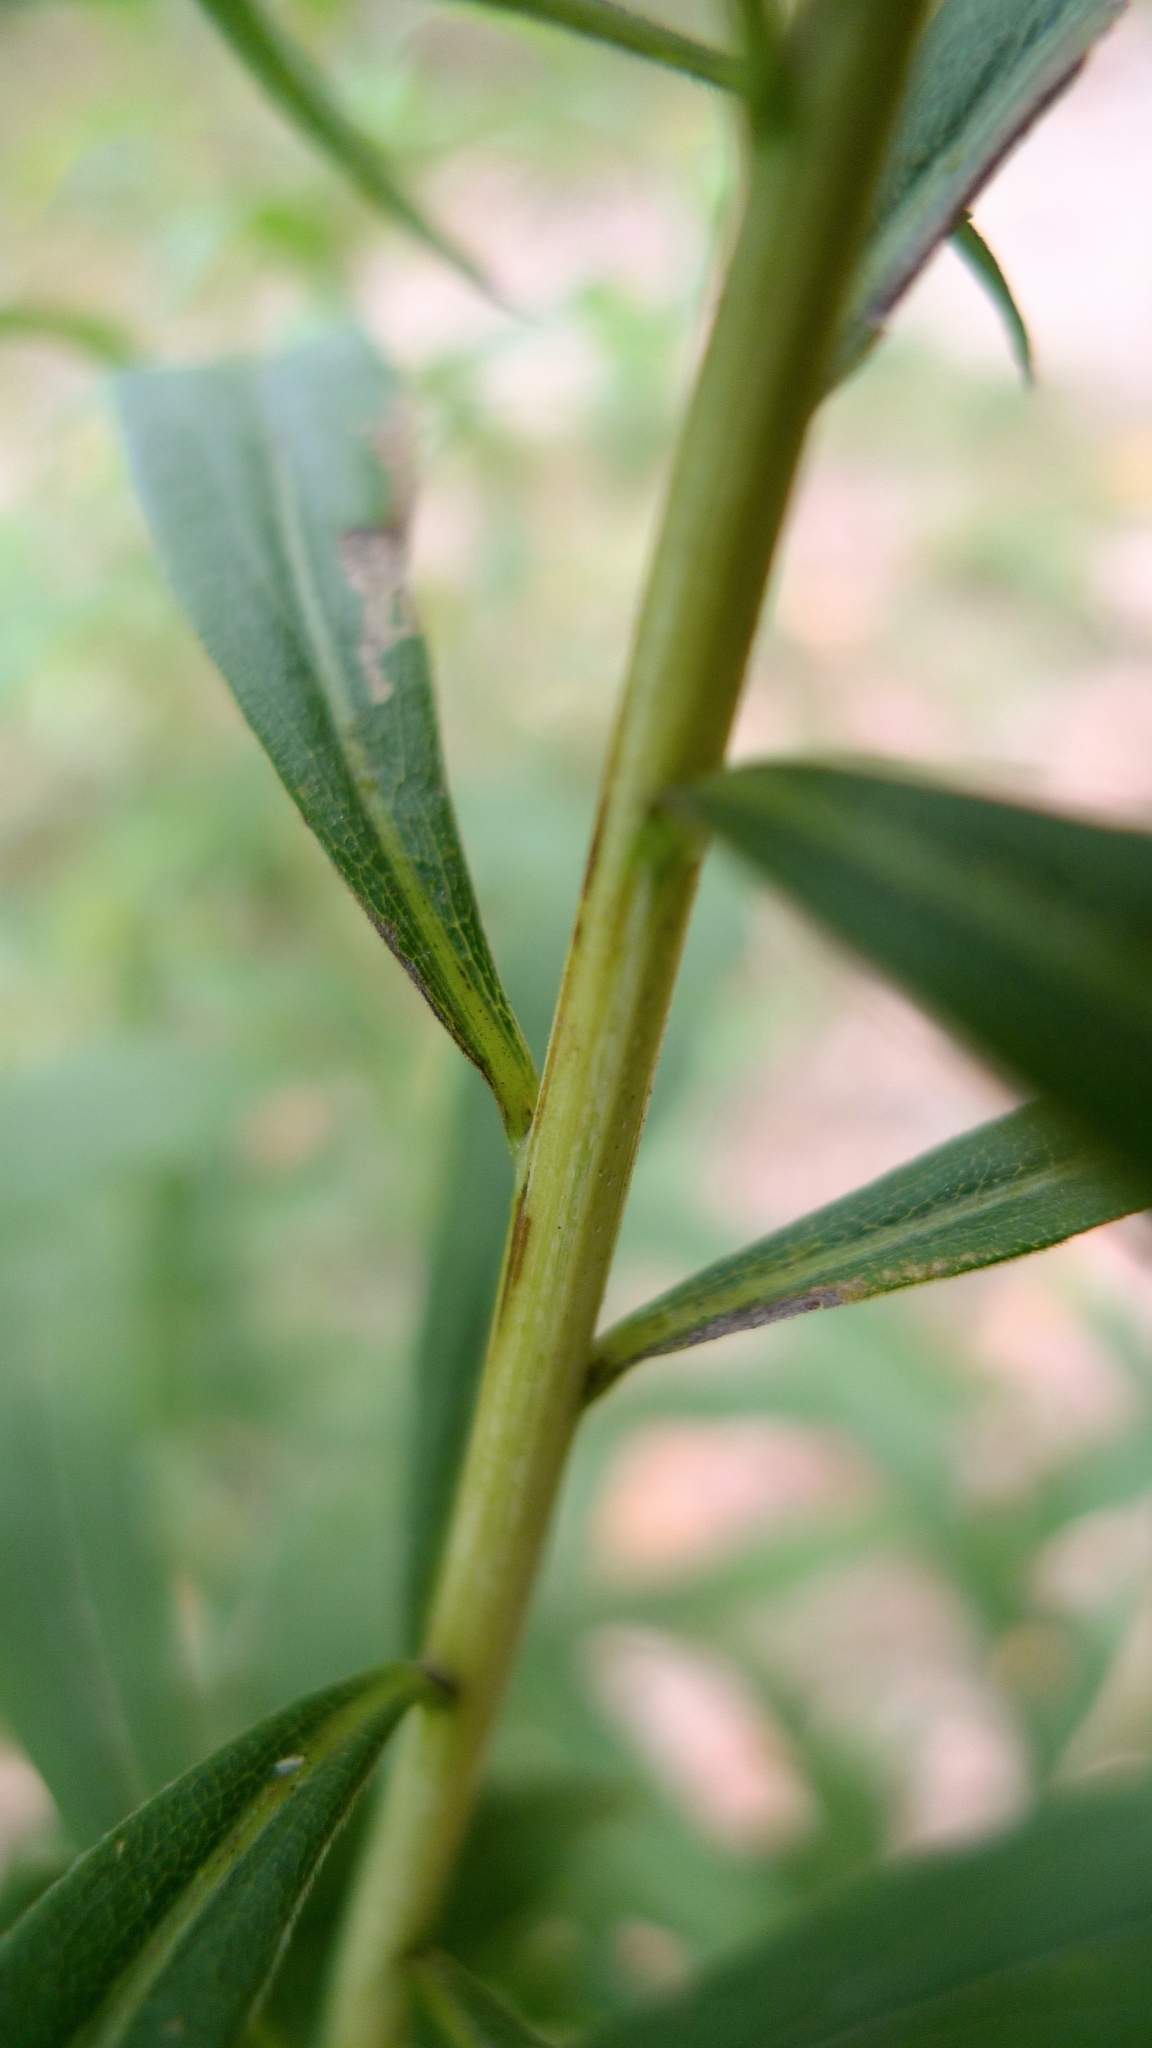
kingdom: Plantae
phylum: Tracheophyta
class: Magnoliopsida
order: Asterales
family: Asteraceae
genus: Solidago
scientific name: Solidago gigantea
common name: Giant goldenrod
